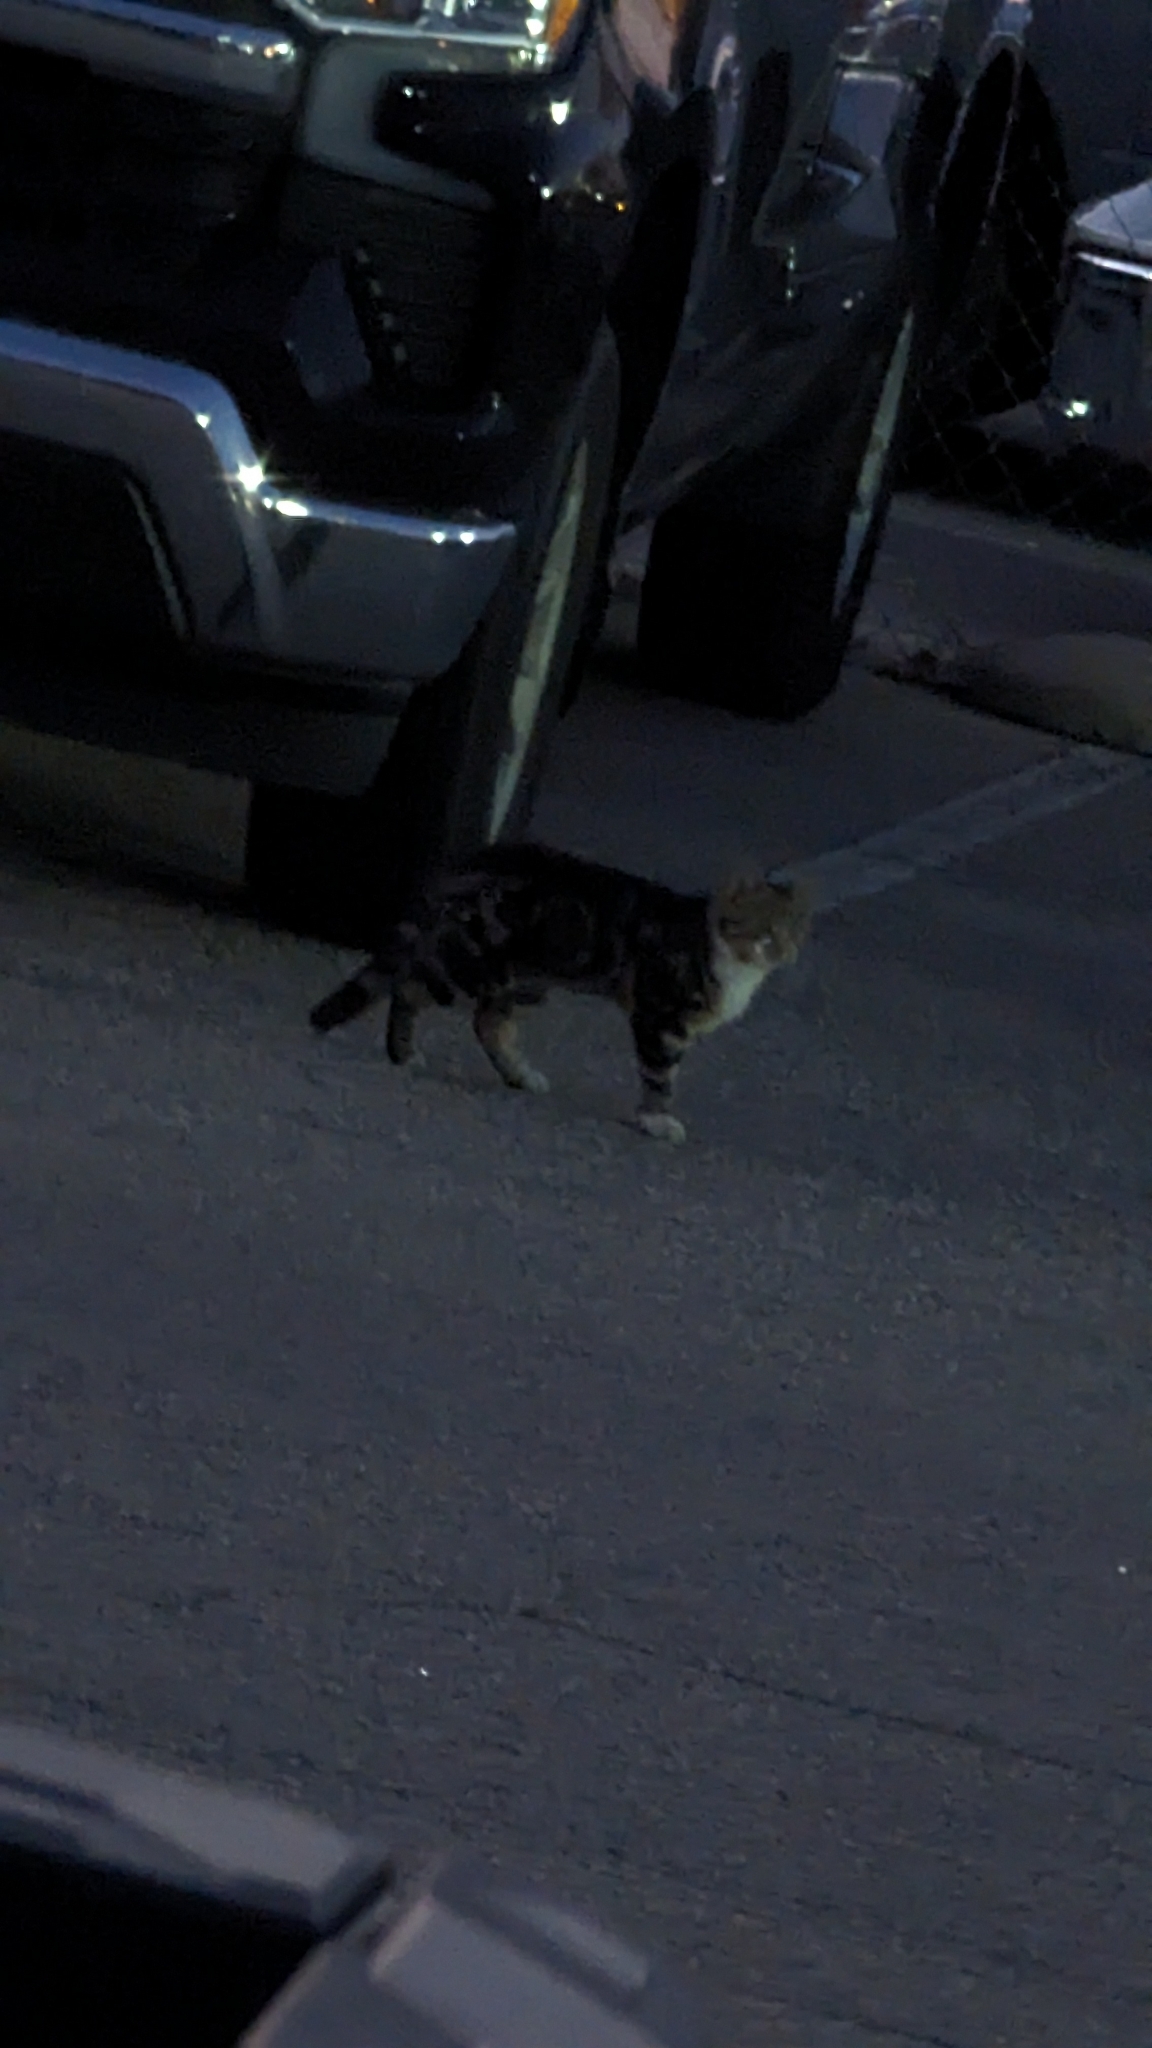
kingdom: Animalia
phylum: Chordata
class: Mammalia
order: Carnivora
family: Felidae
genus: Felis
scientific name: Felis catus
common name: Domestic cat
